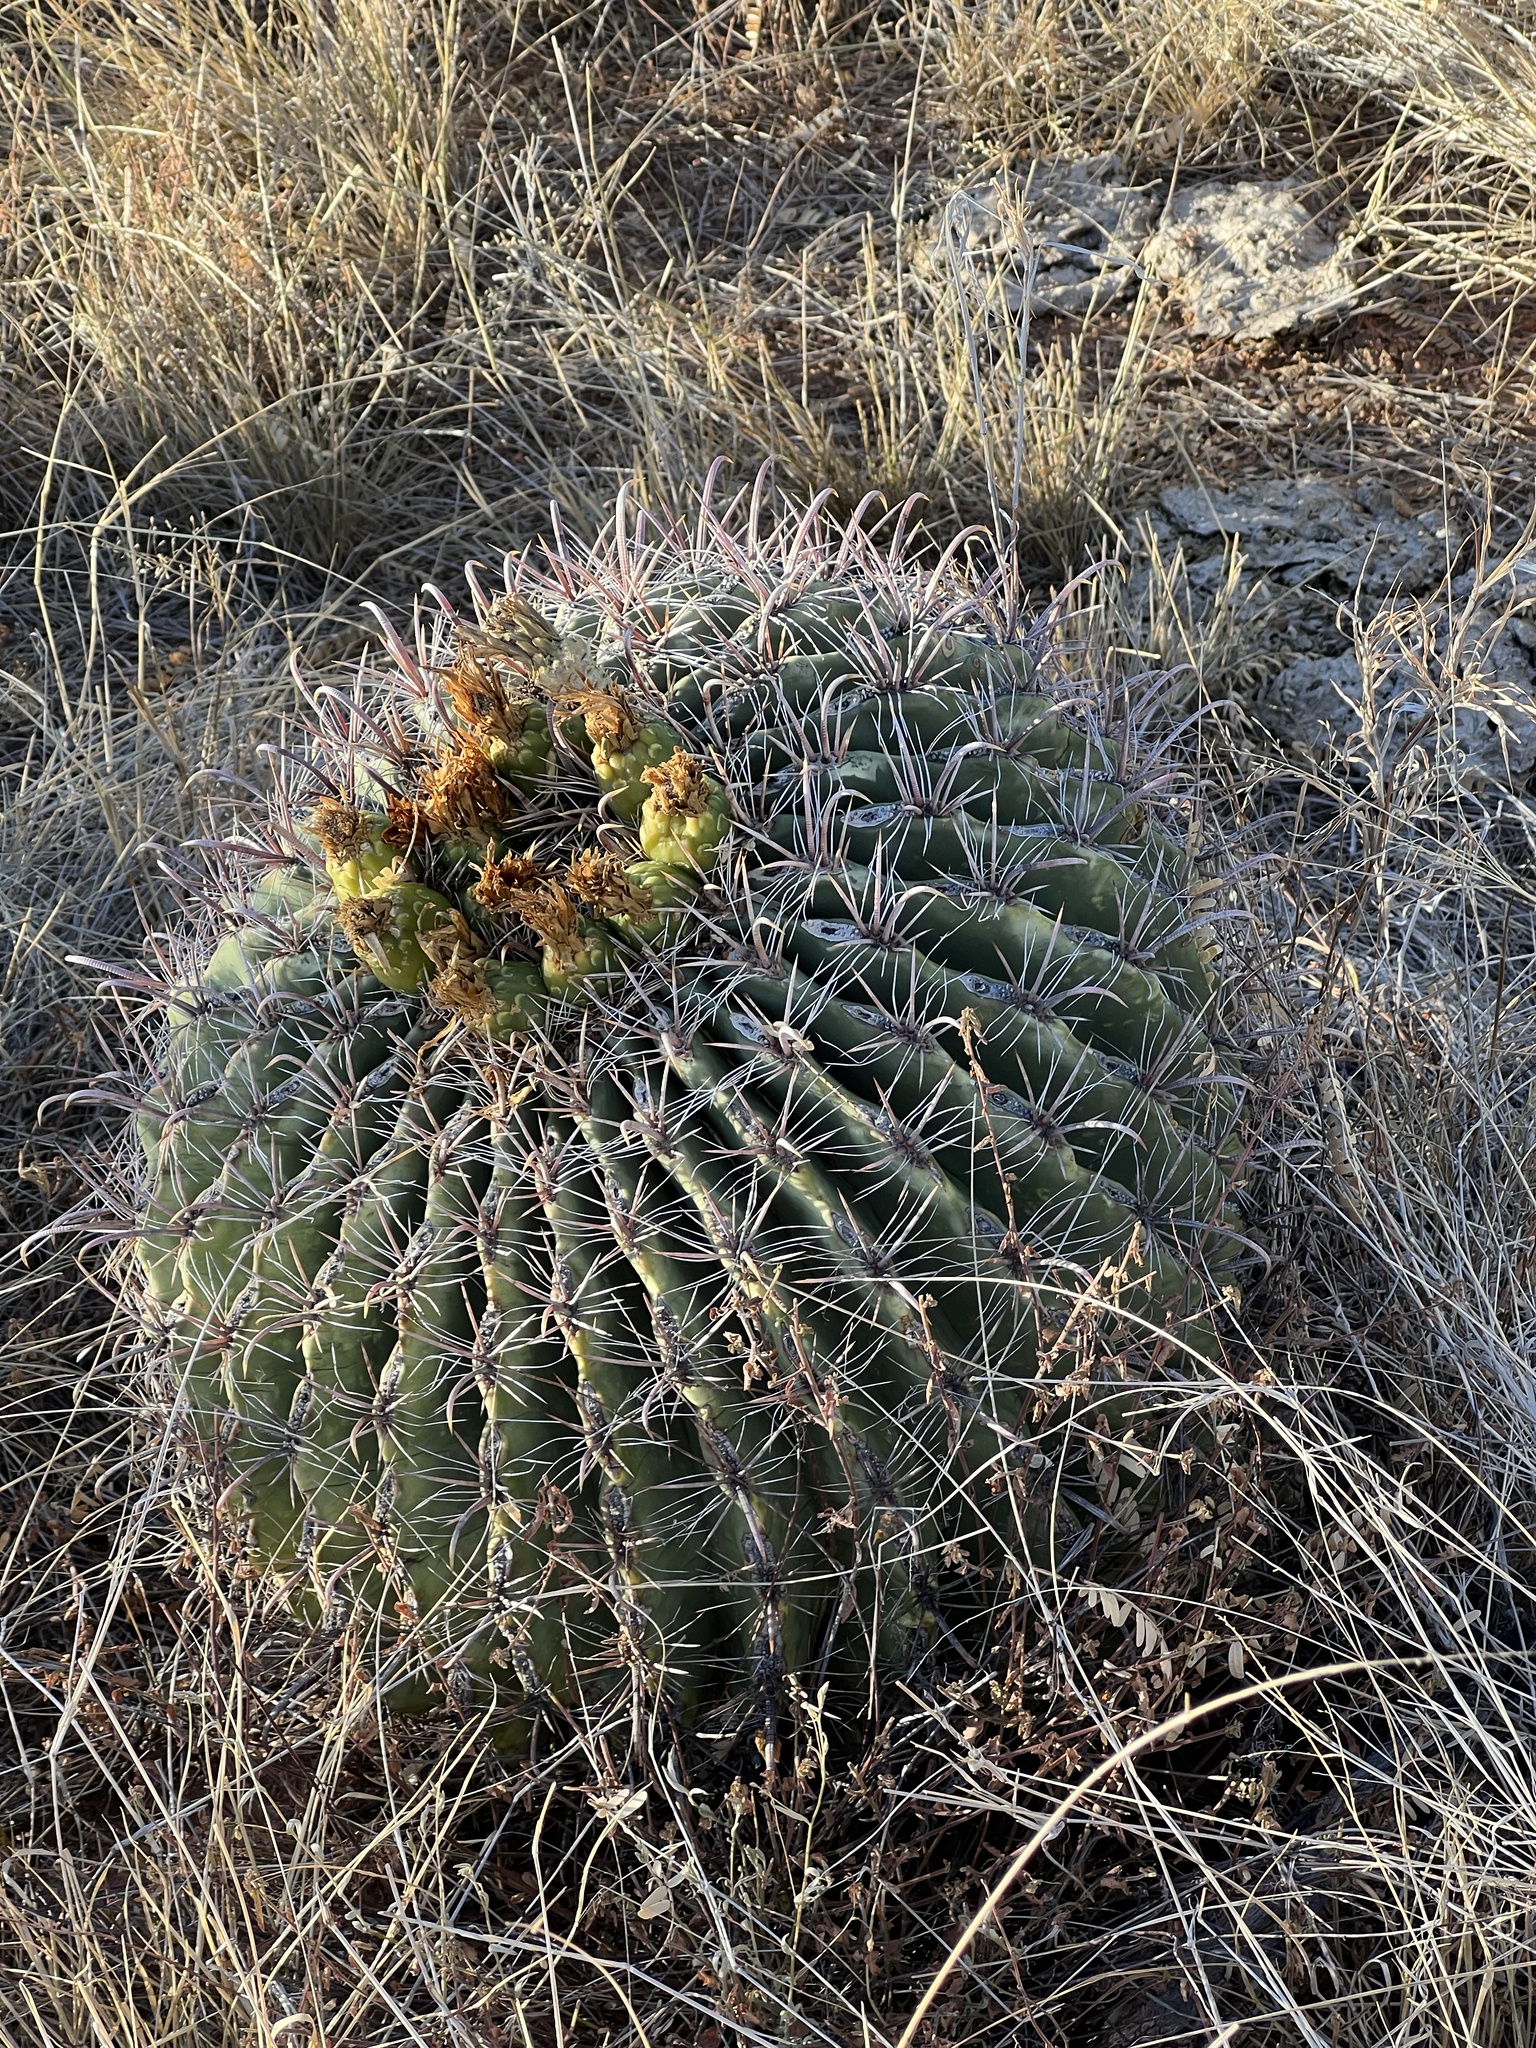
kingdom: Plantae
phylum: Tracheophyta
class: Magnoliopsida
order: Caryophyllales
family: Cactaceae
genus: Ferocactus
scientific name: Ferocactus wislizeni
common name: Candy barrel cactus
